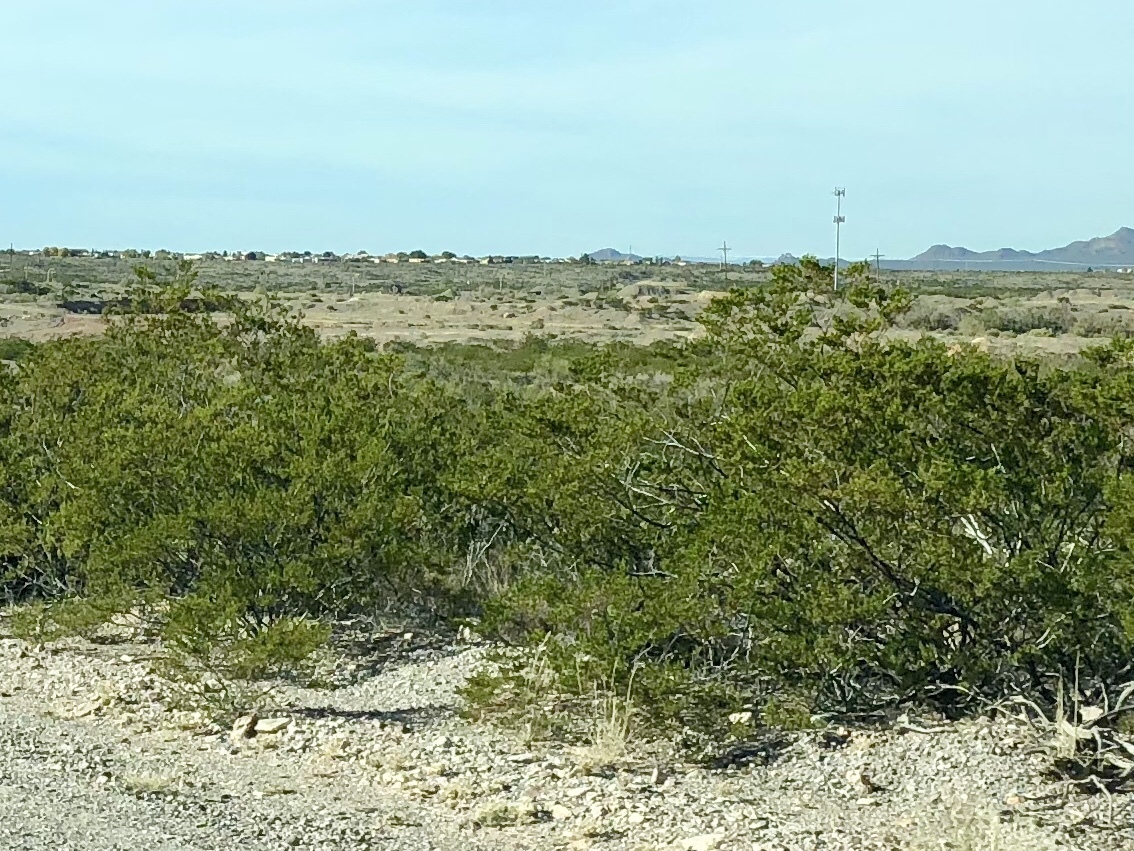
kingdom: Plantae
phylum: Tracheophyta
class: Magnoliopsida
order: Zygophyllales
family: Zygophyllaceae
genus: Larrea
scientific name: Larrea tridentata
